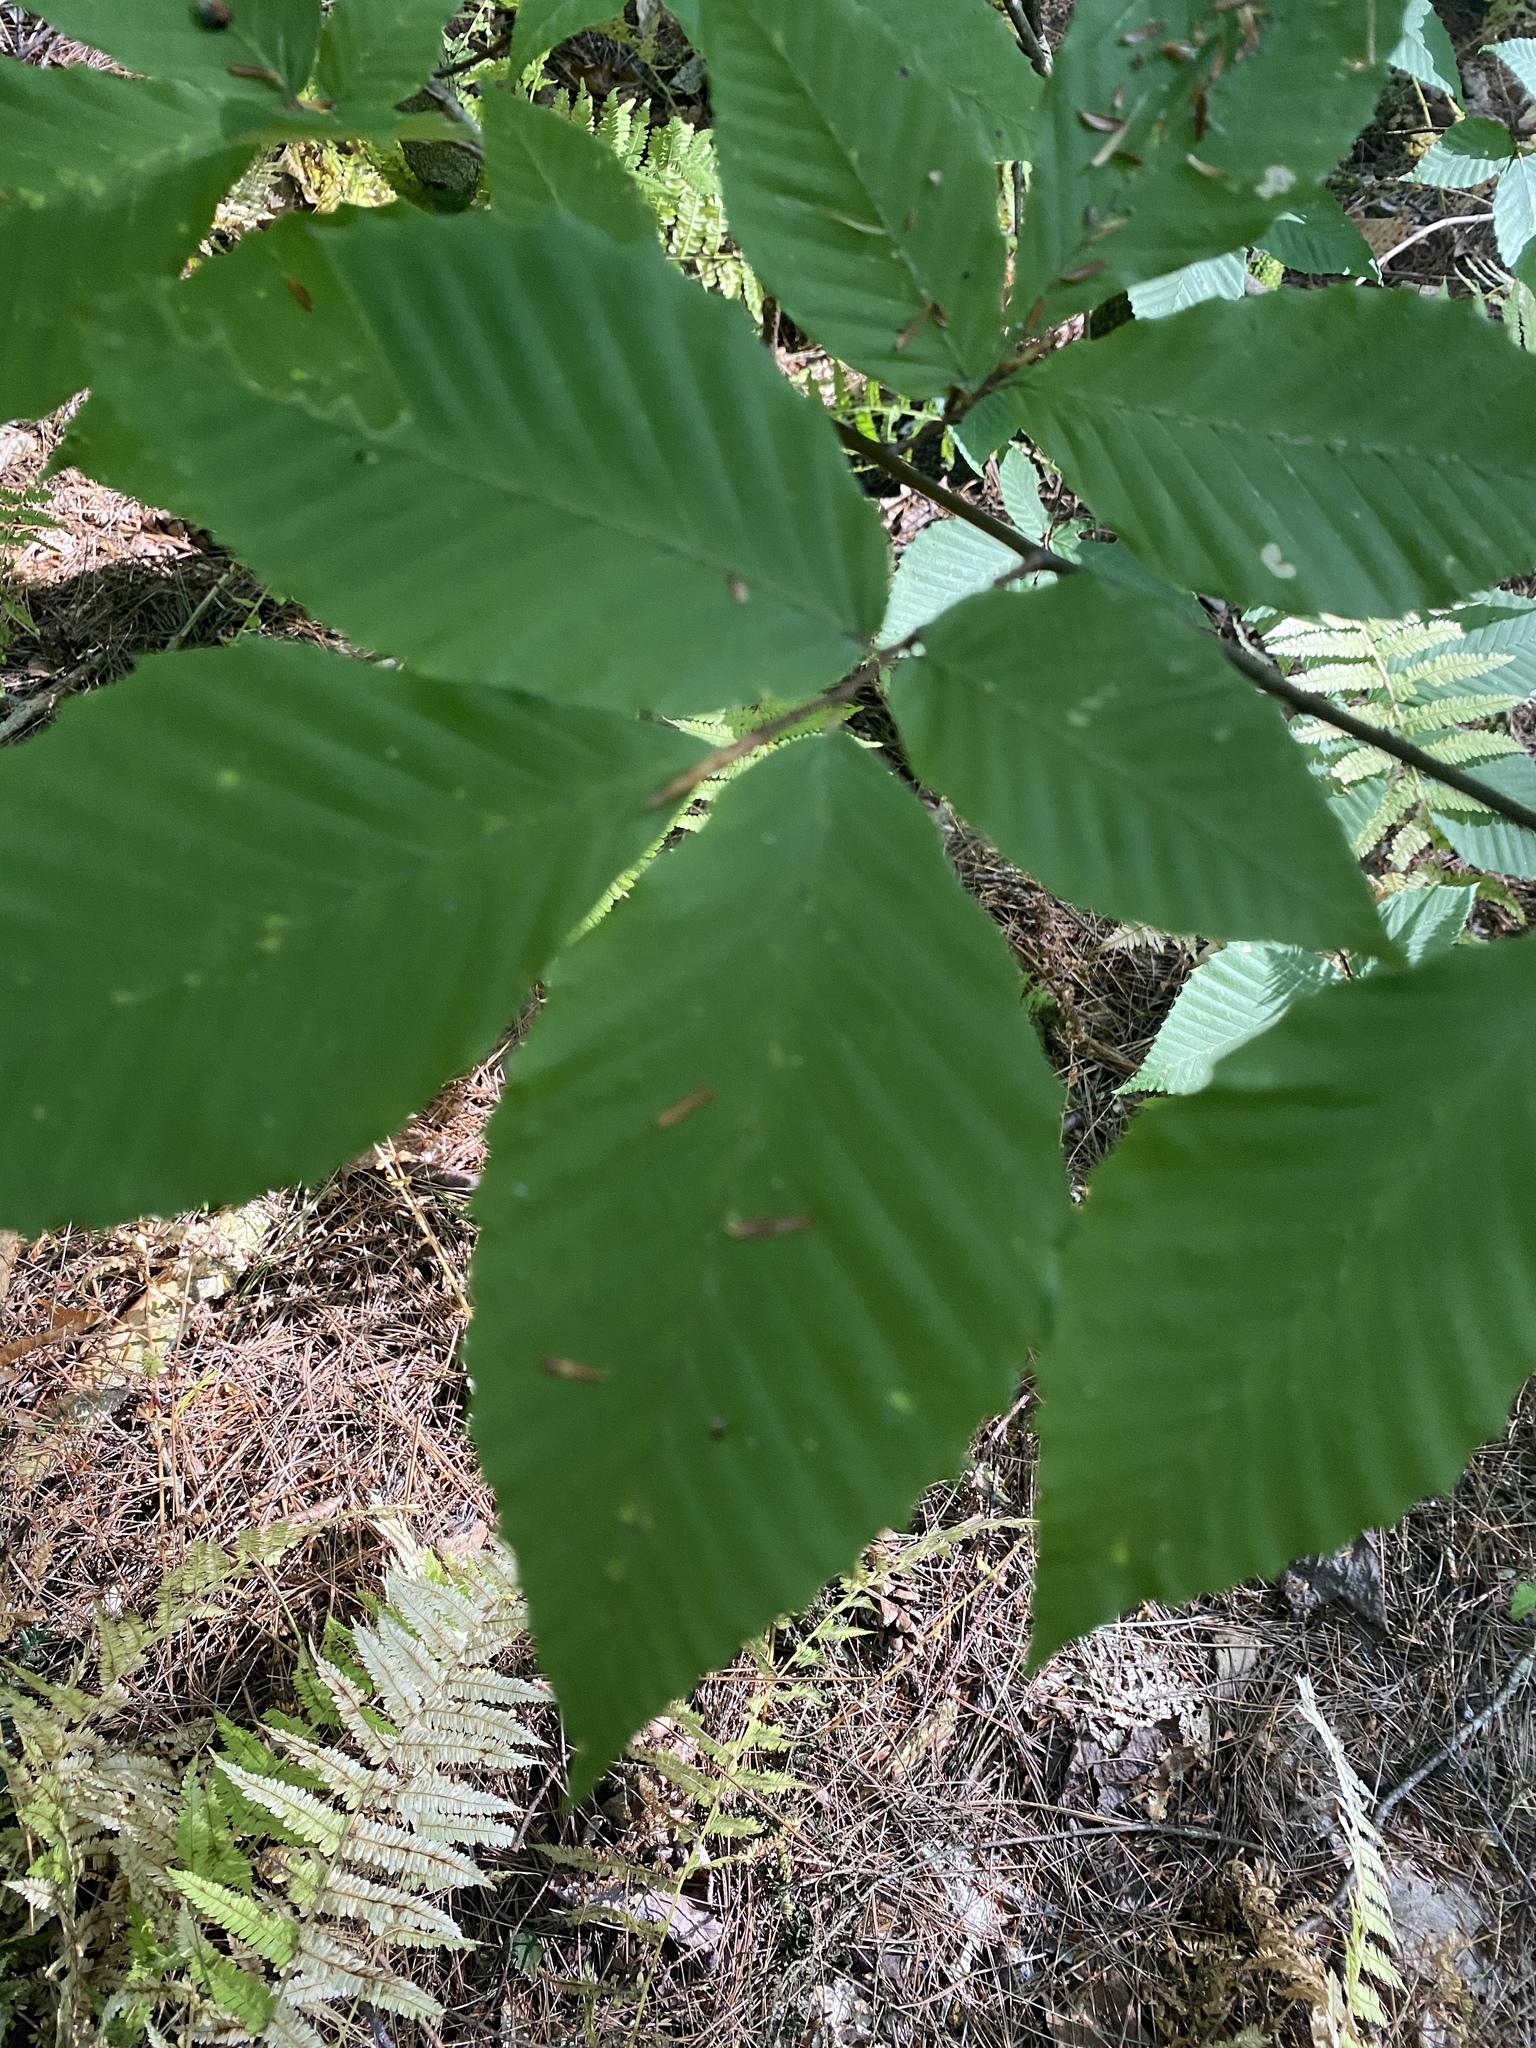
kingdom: Plantae
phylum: Tracheophyta
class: Magnoliopsida
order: Fagales
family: Fagaceae
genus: Fagus
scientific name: Fagus grandifolia
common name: American beech
